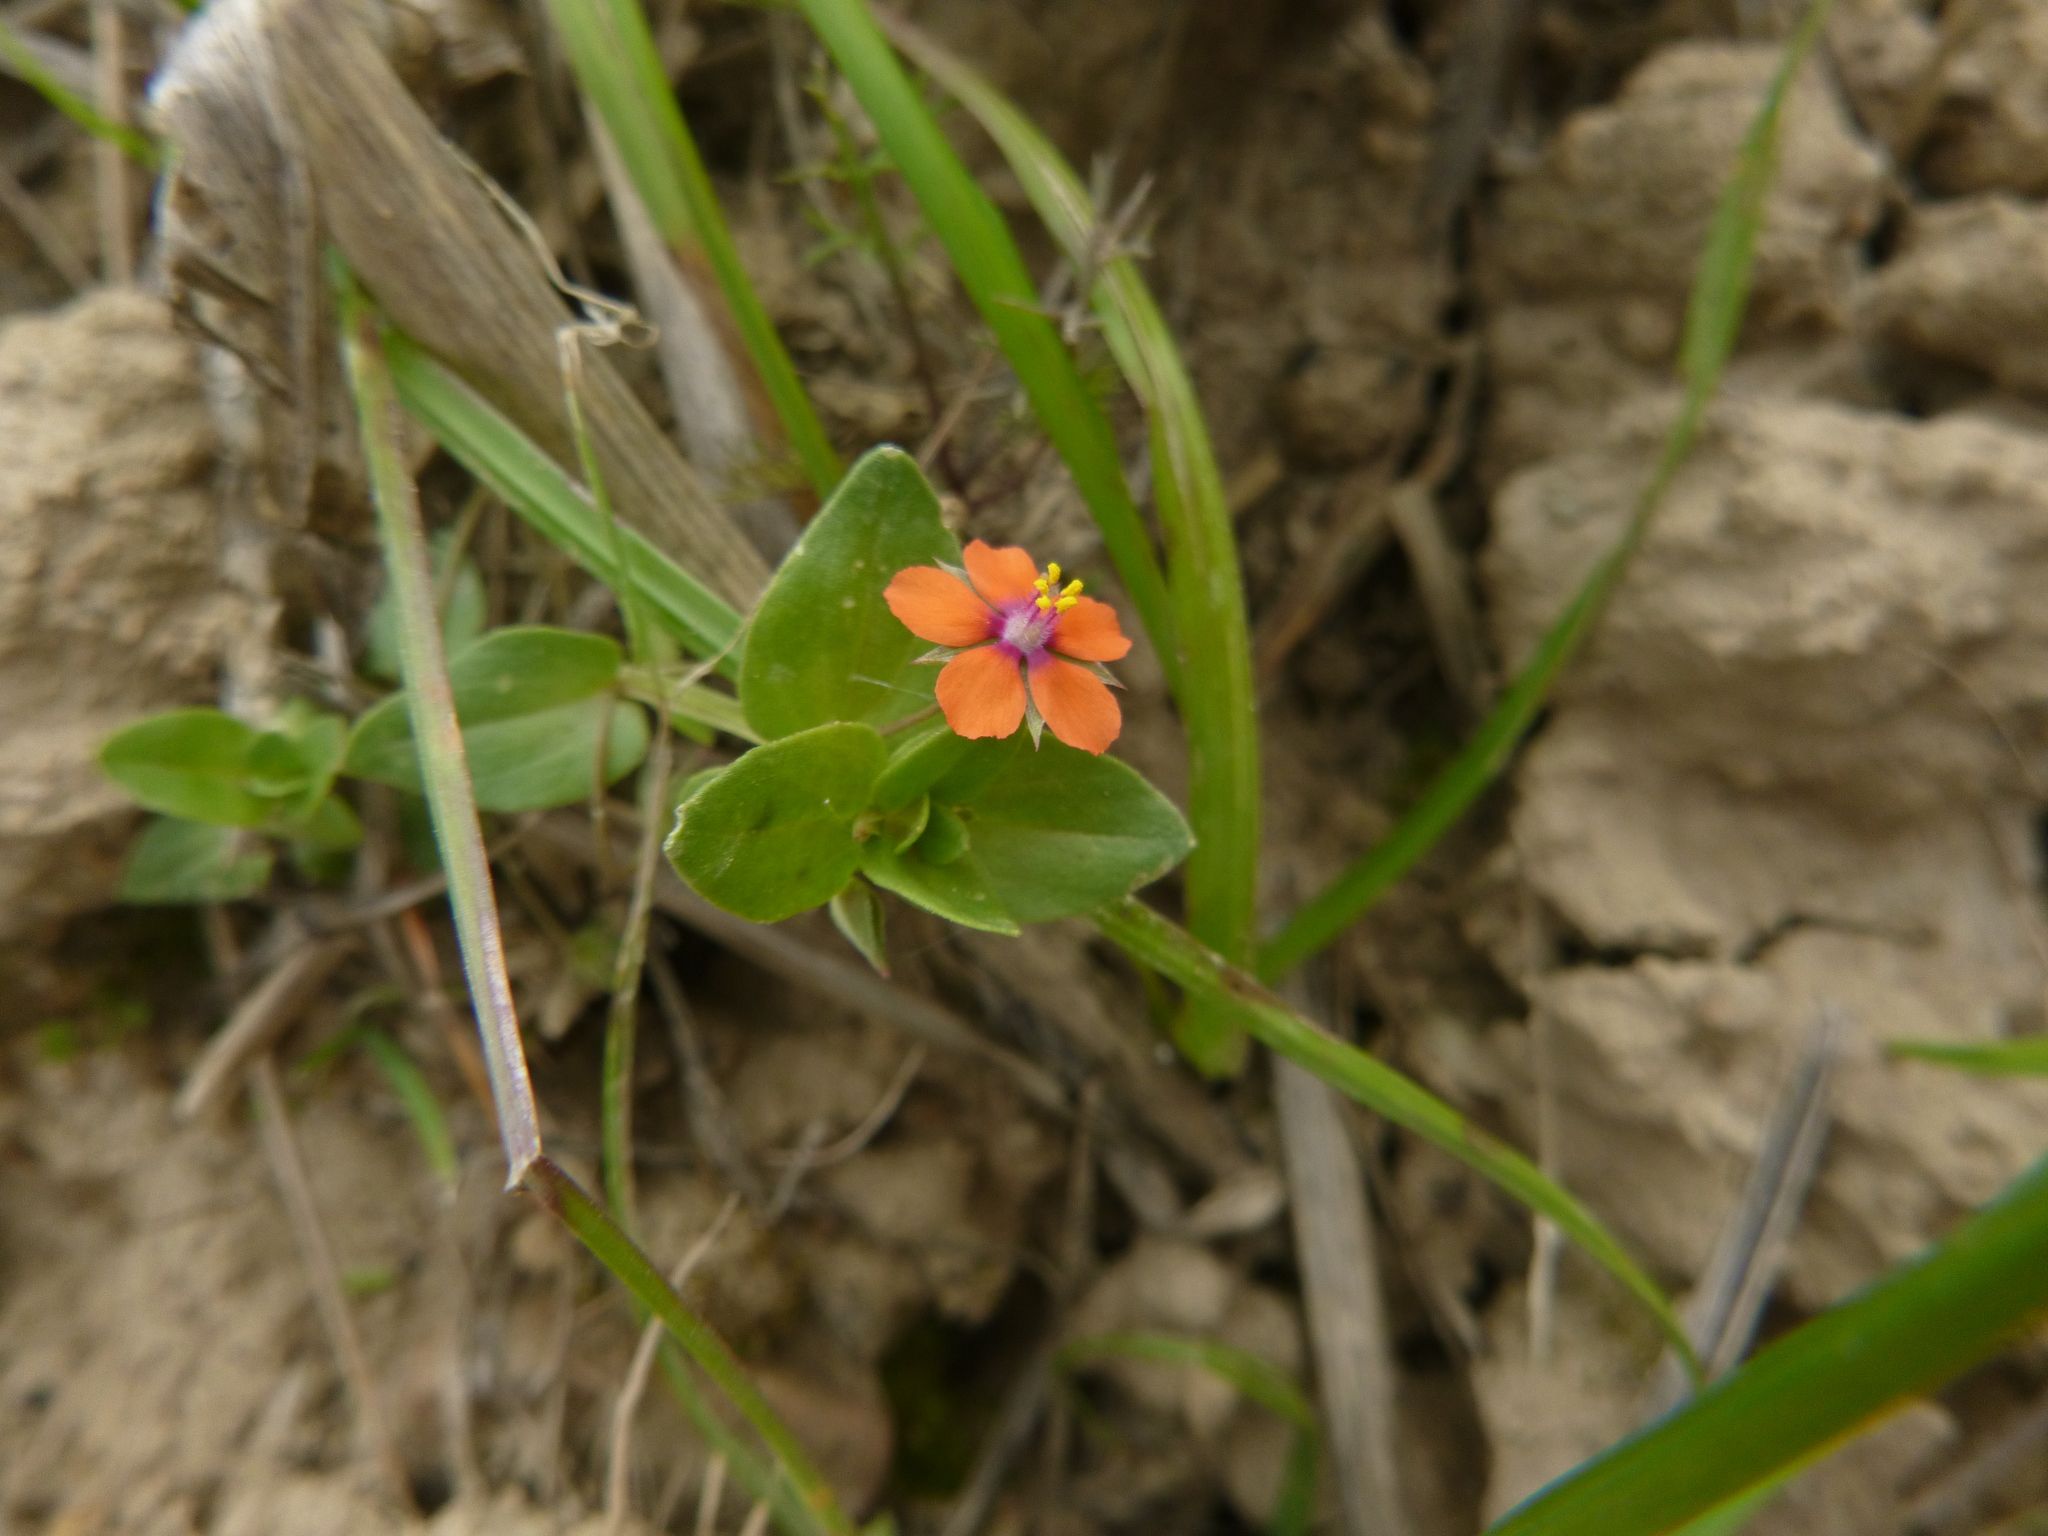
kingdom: Plantae
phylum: Tracheophyta
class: Magnoliopsida
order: Ericales
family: Primulaceae
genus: Lysimachia
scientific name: Lysimachia arvensis
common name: Scarlet pimpernel
